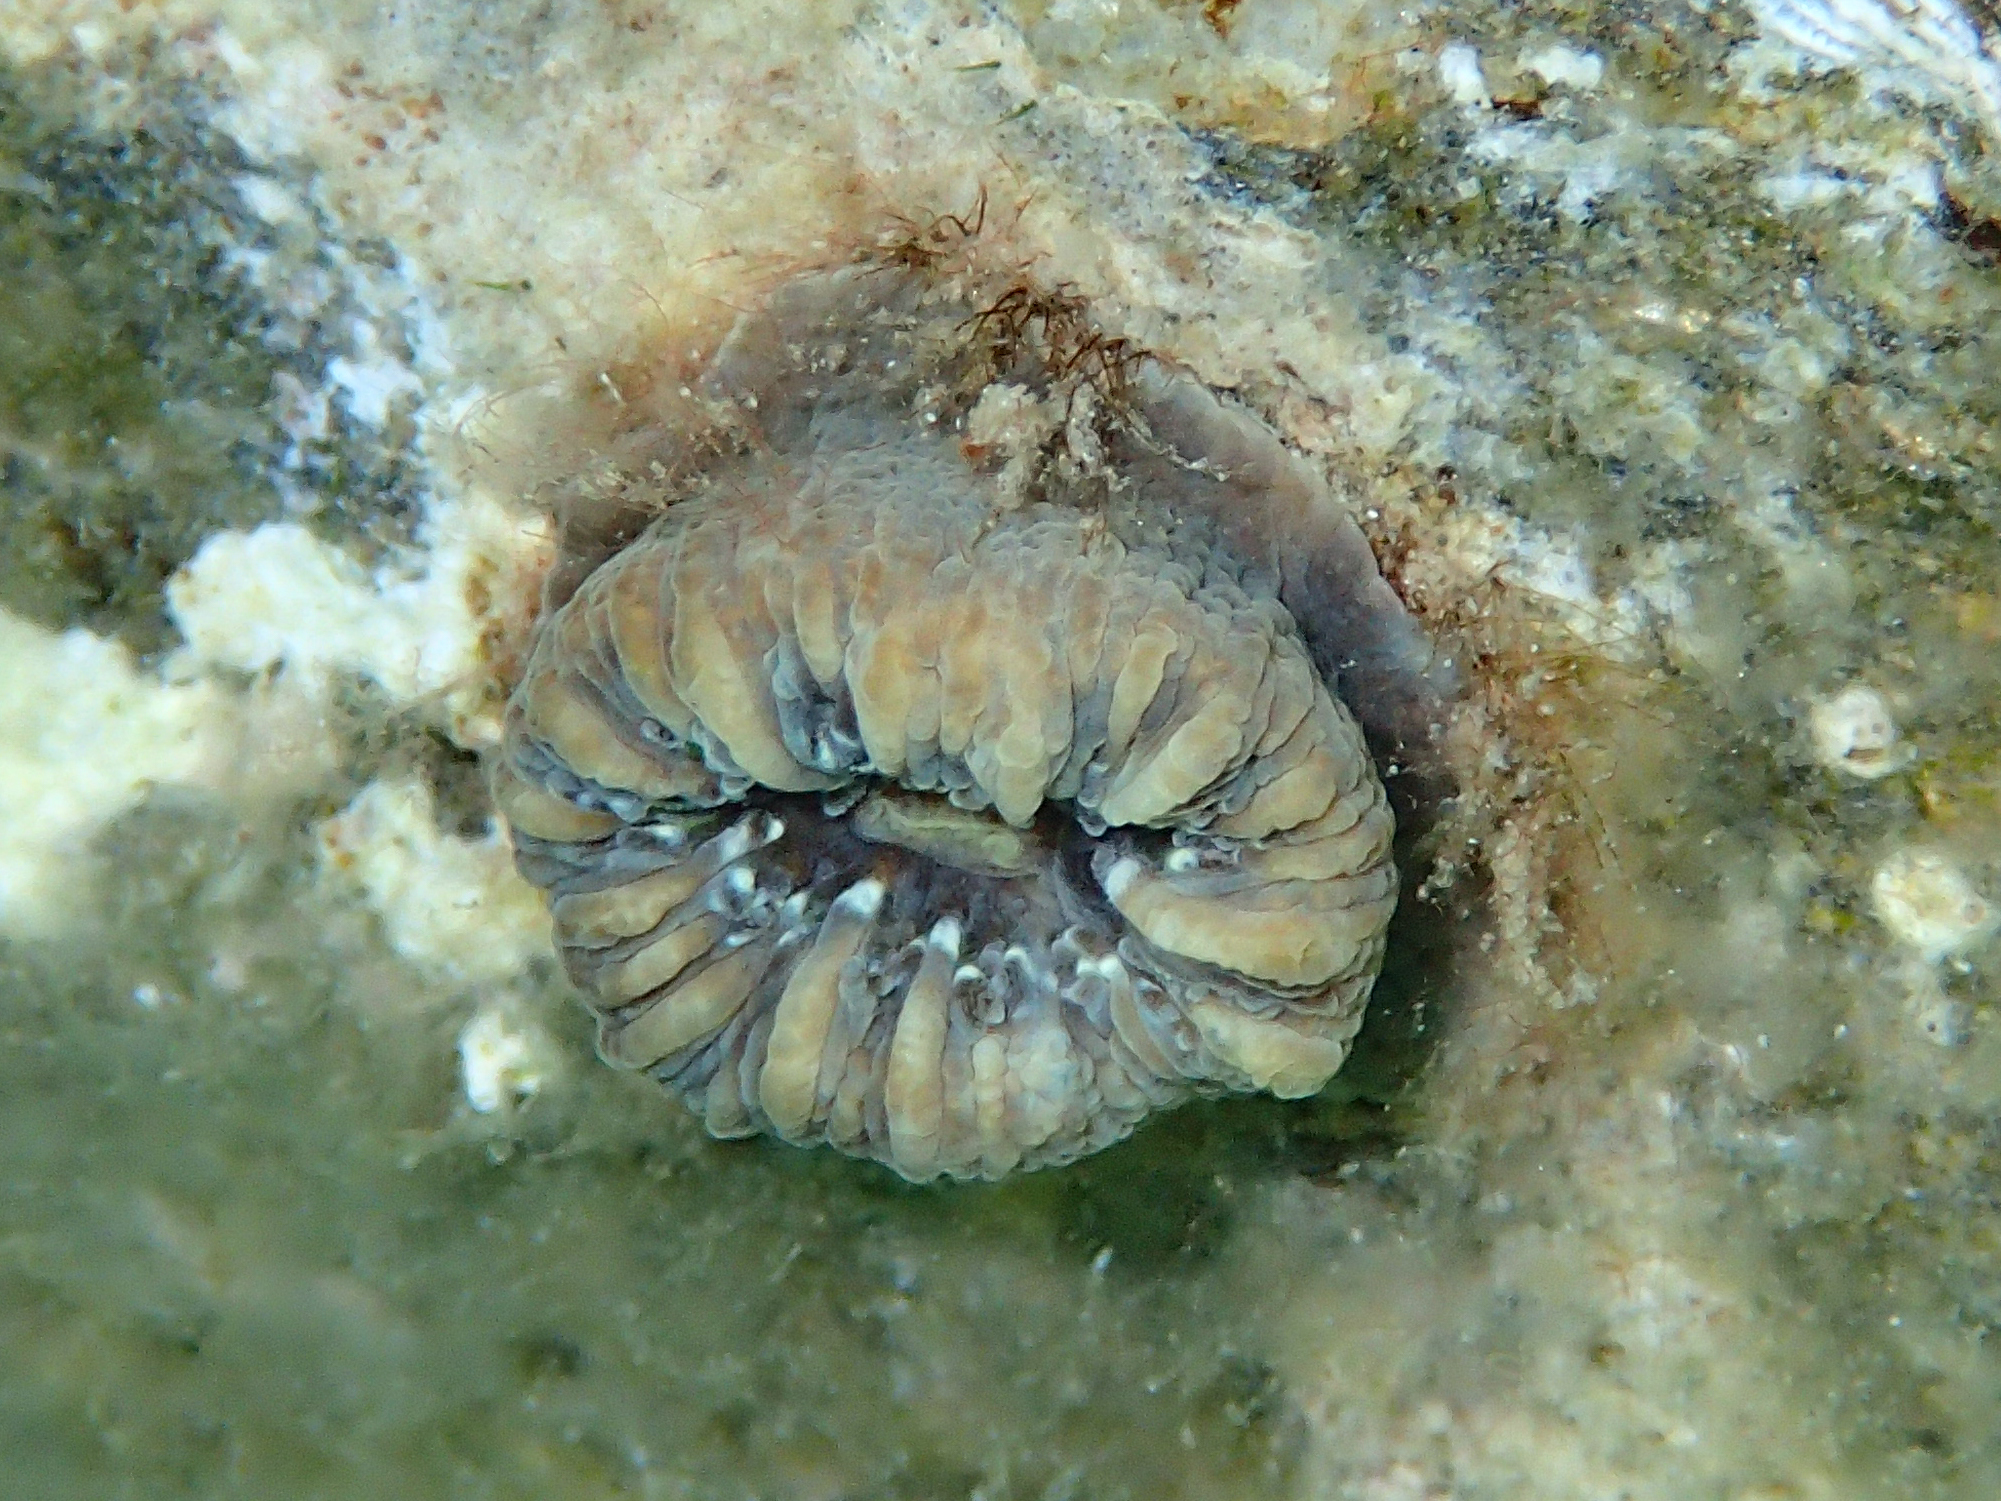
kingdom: Animalia
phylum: Cnidaria
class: Anthozoa
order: Scleractinia
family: Dendrophylliidae
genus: Balanophyllia
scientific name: Balanophyllia europaea
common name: Scarlet coral
